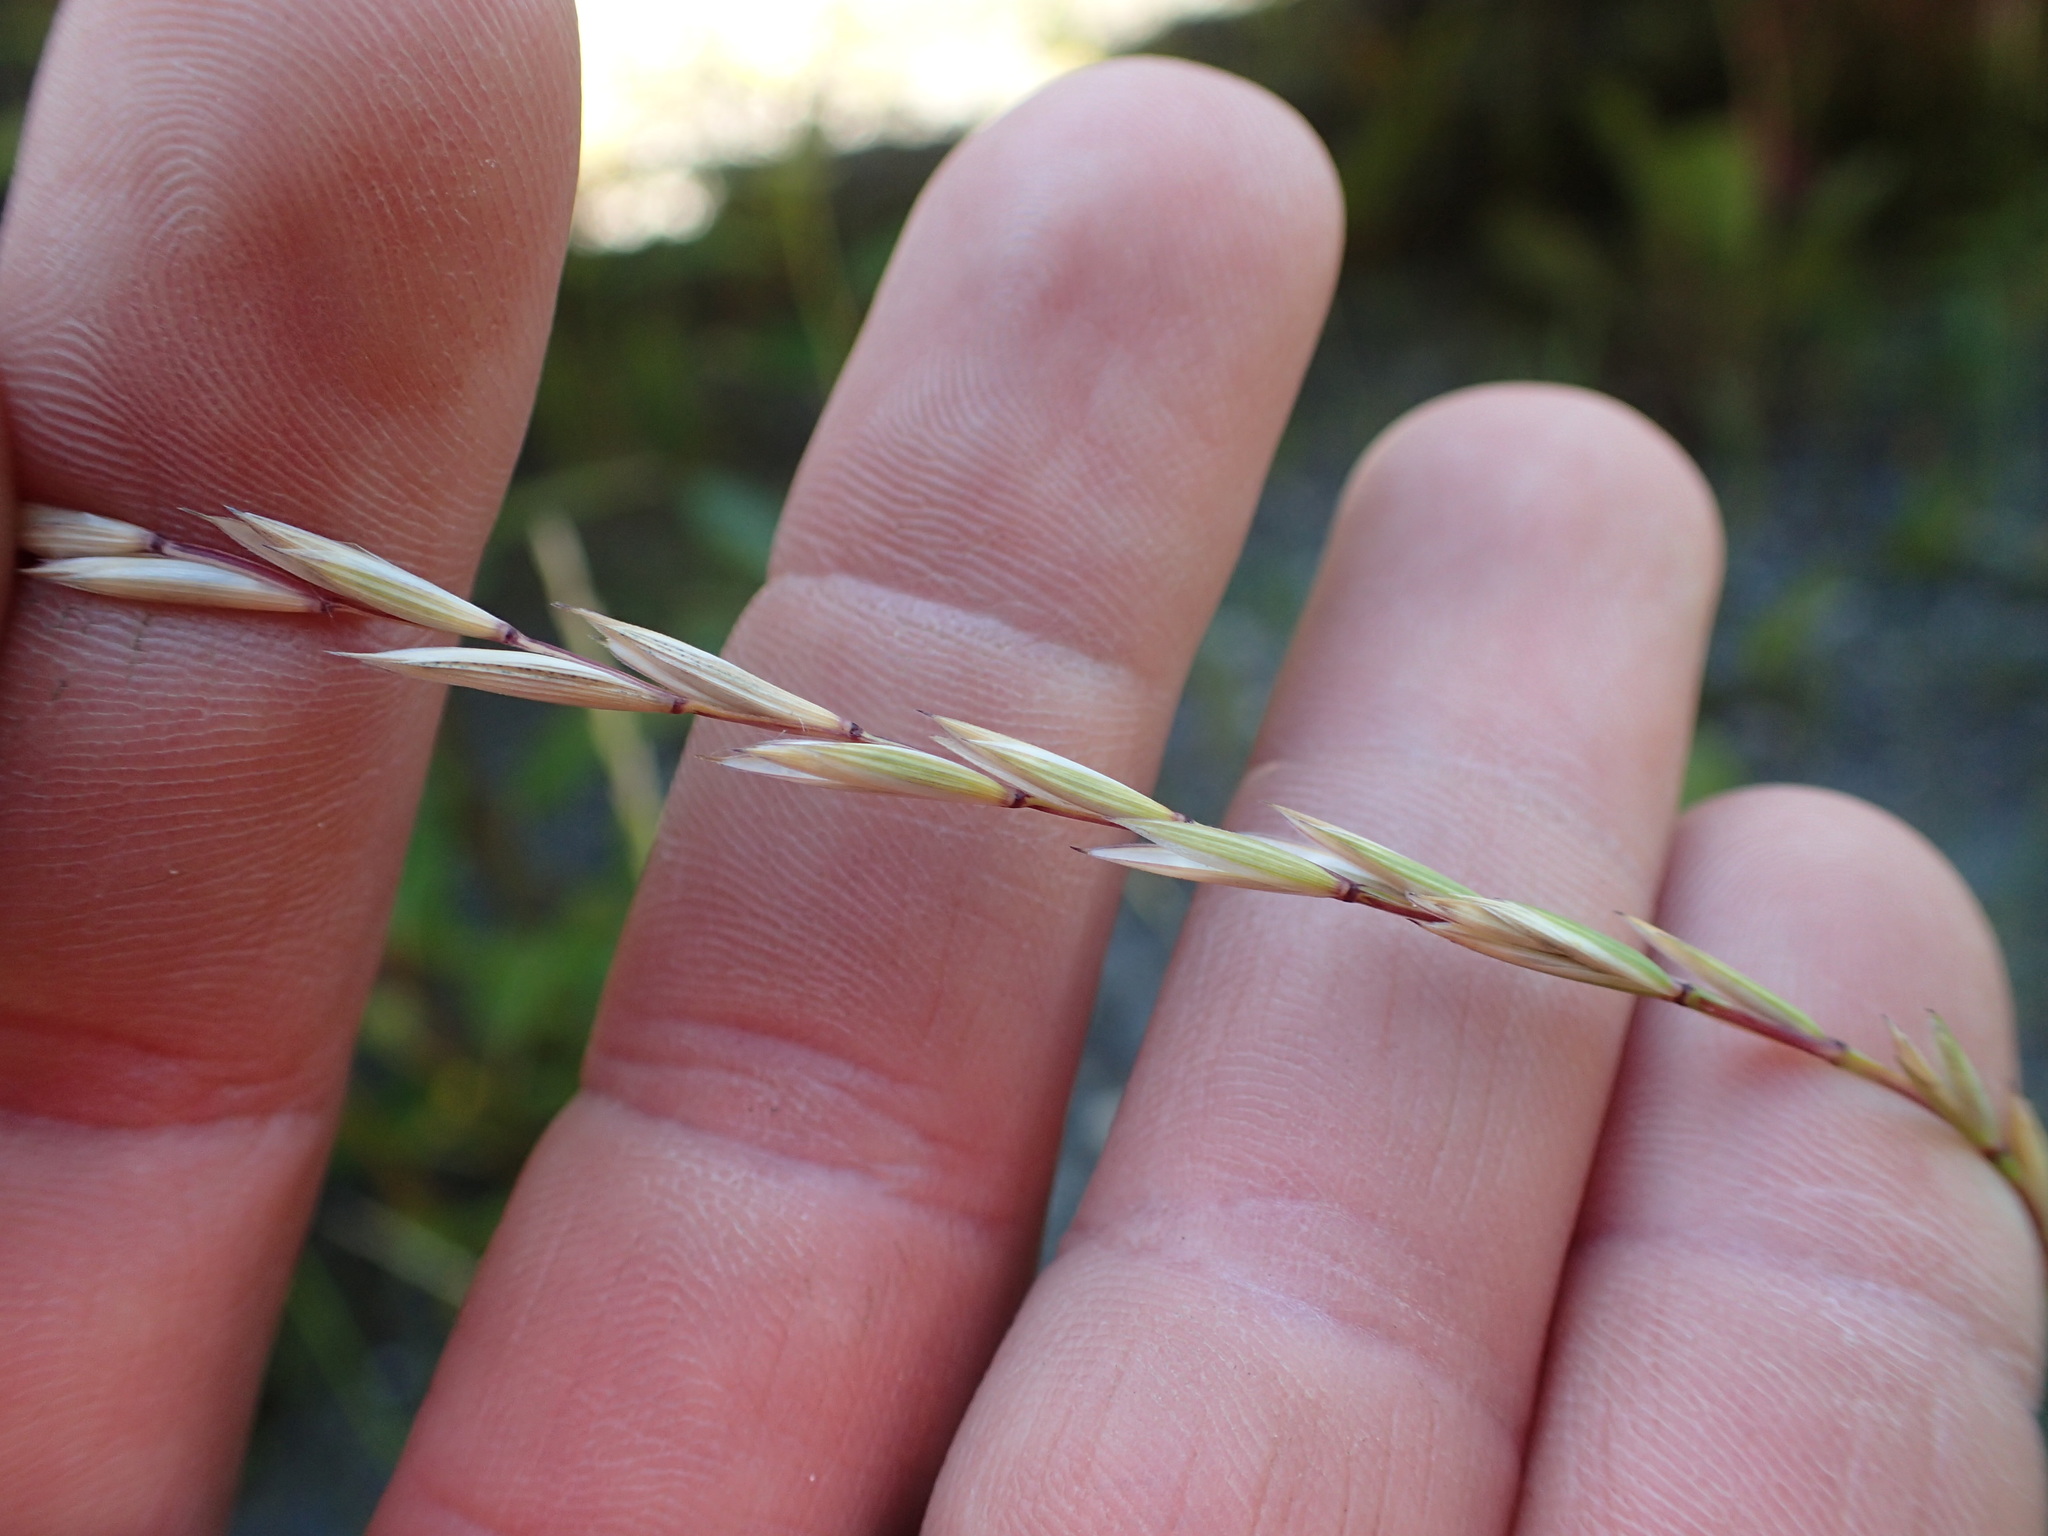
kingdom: Plantae
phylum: Tracheophyta
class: Liliopsida
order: Poales
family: Poaceae
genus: Elymus
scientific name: Elymus violaceus
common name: Arctic wheatgrass
